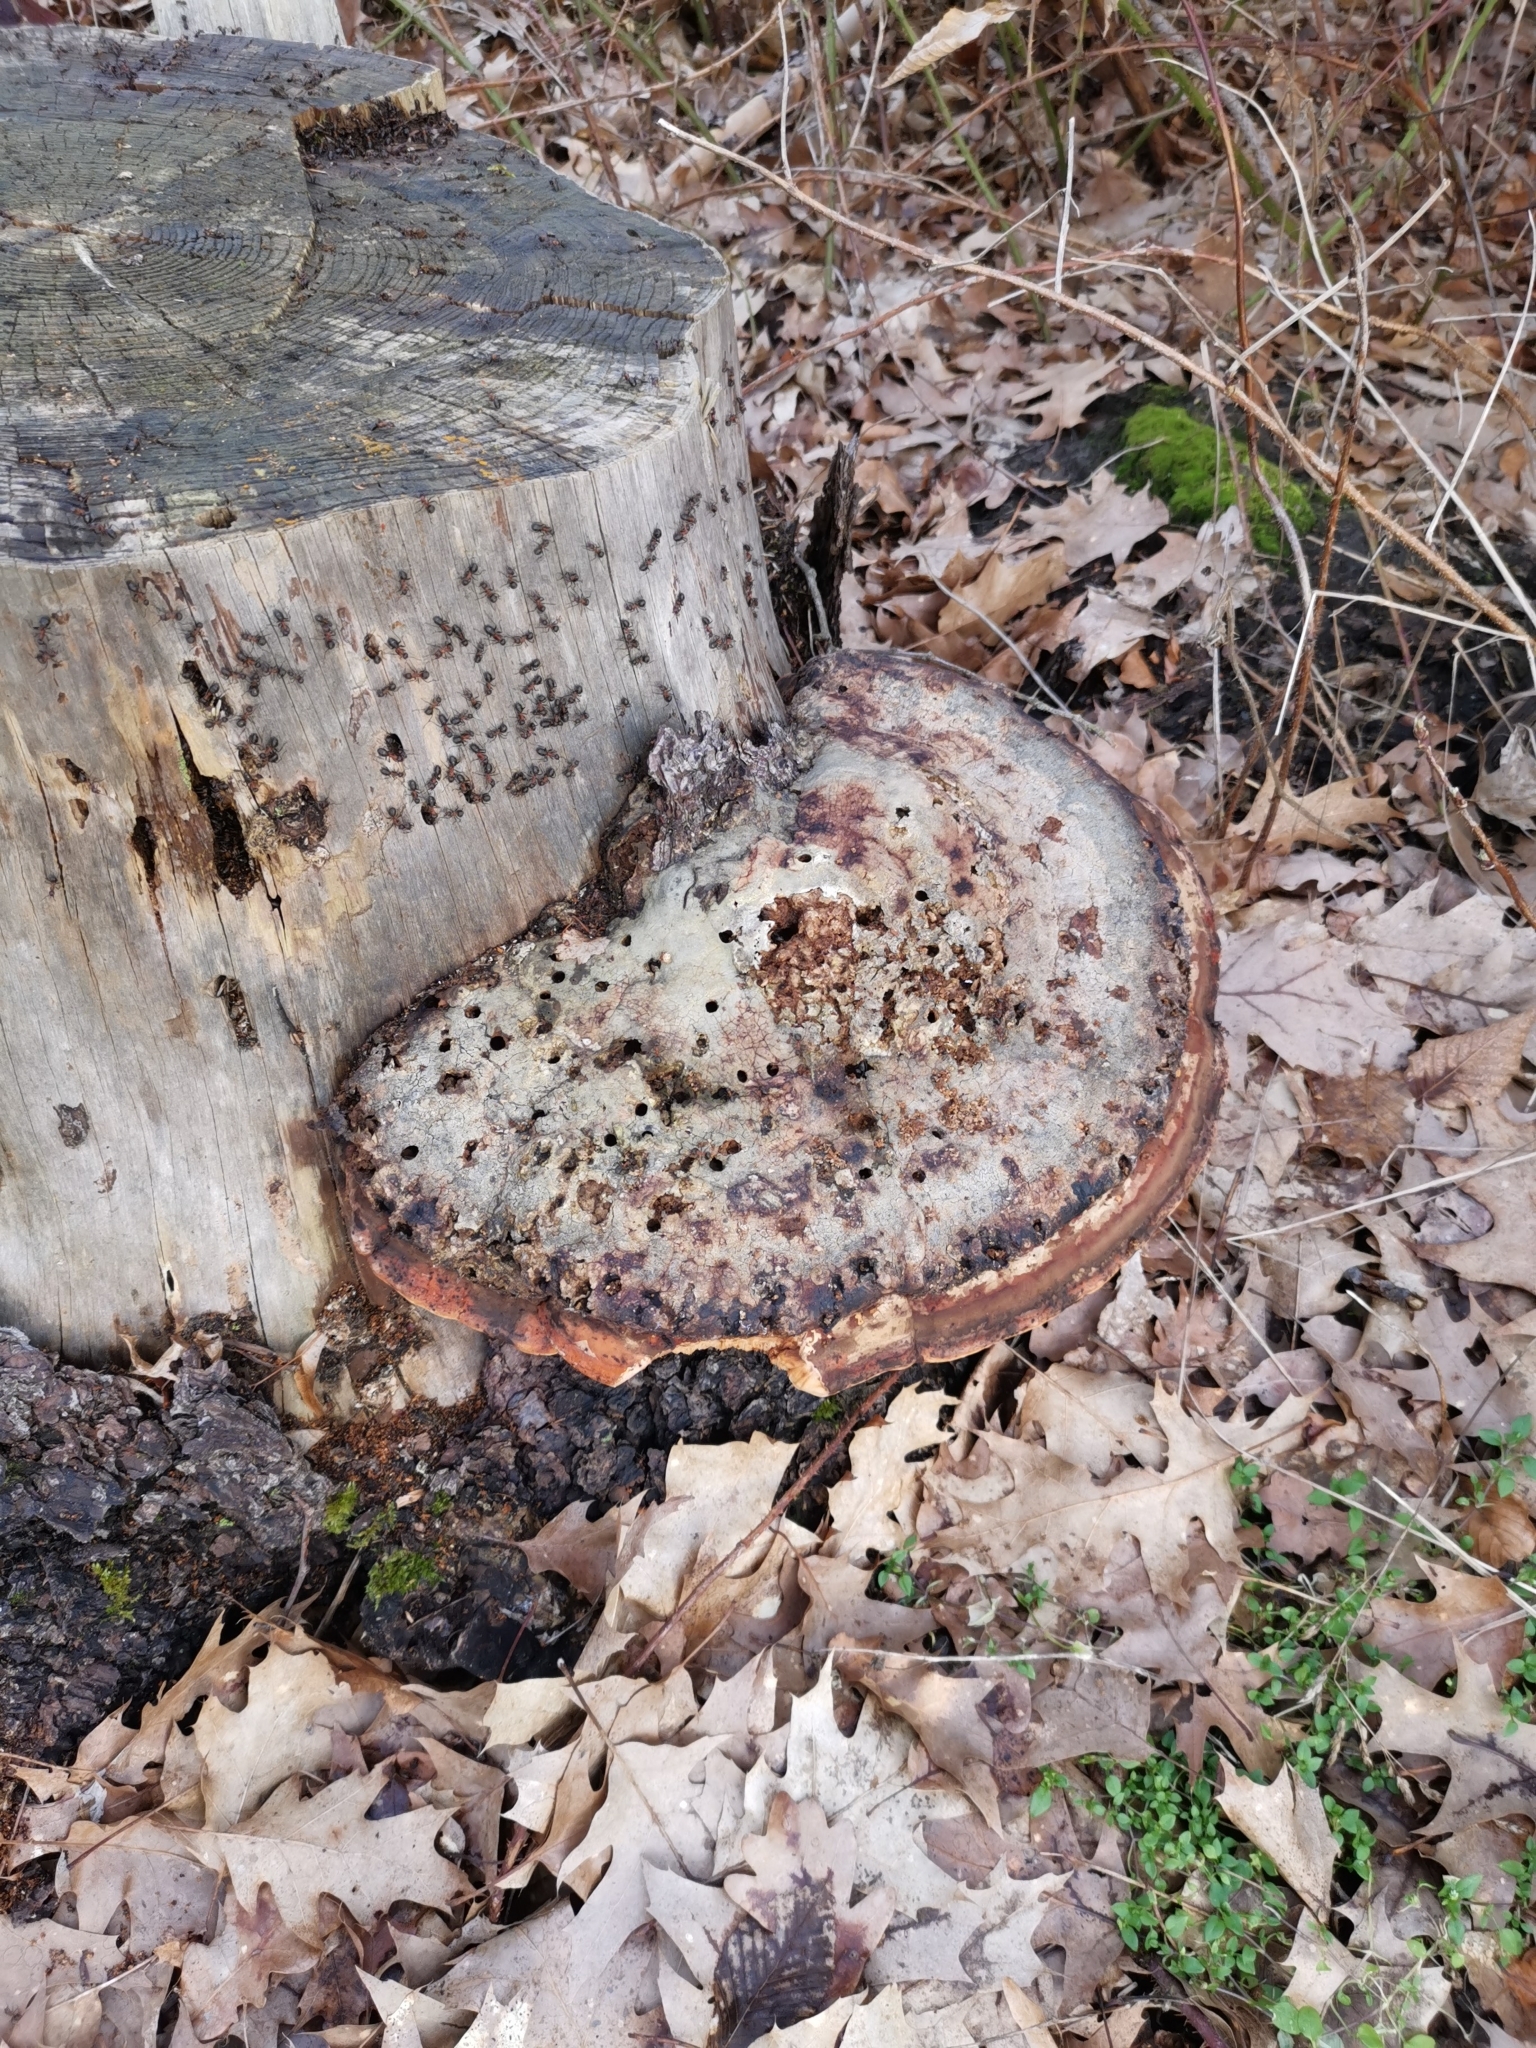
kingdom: Fungi
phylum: Basidiomycota
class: Agaricomycetes
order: Polyporales
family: Fomitopsidaceae
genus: Fomitopsis
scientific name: Fomitopsis pinicola
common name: Red-belted bracket
